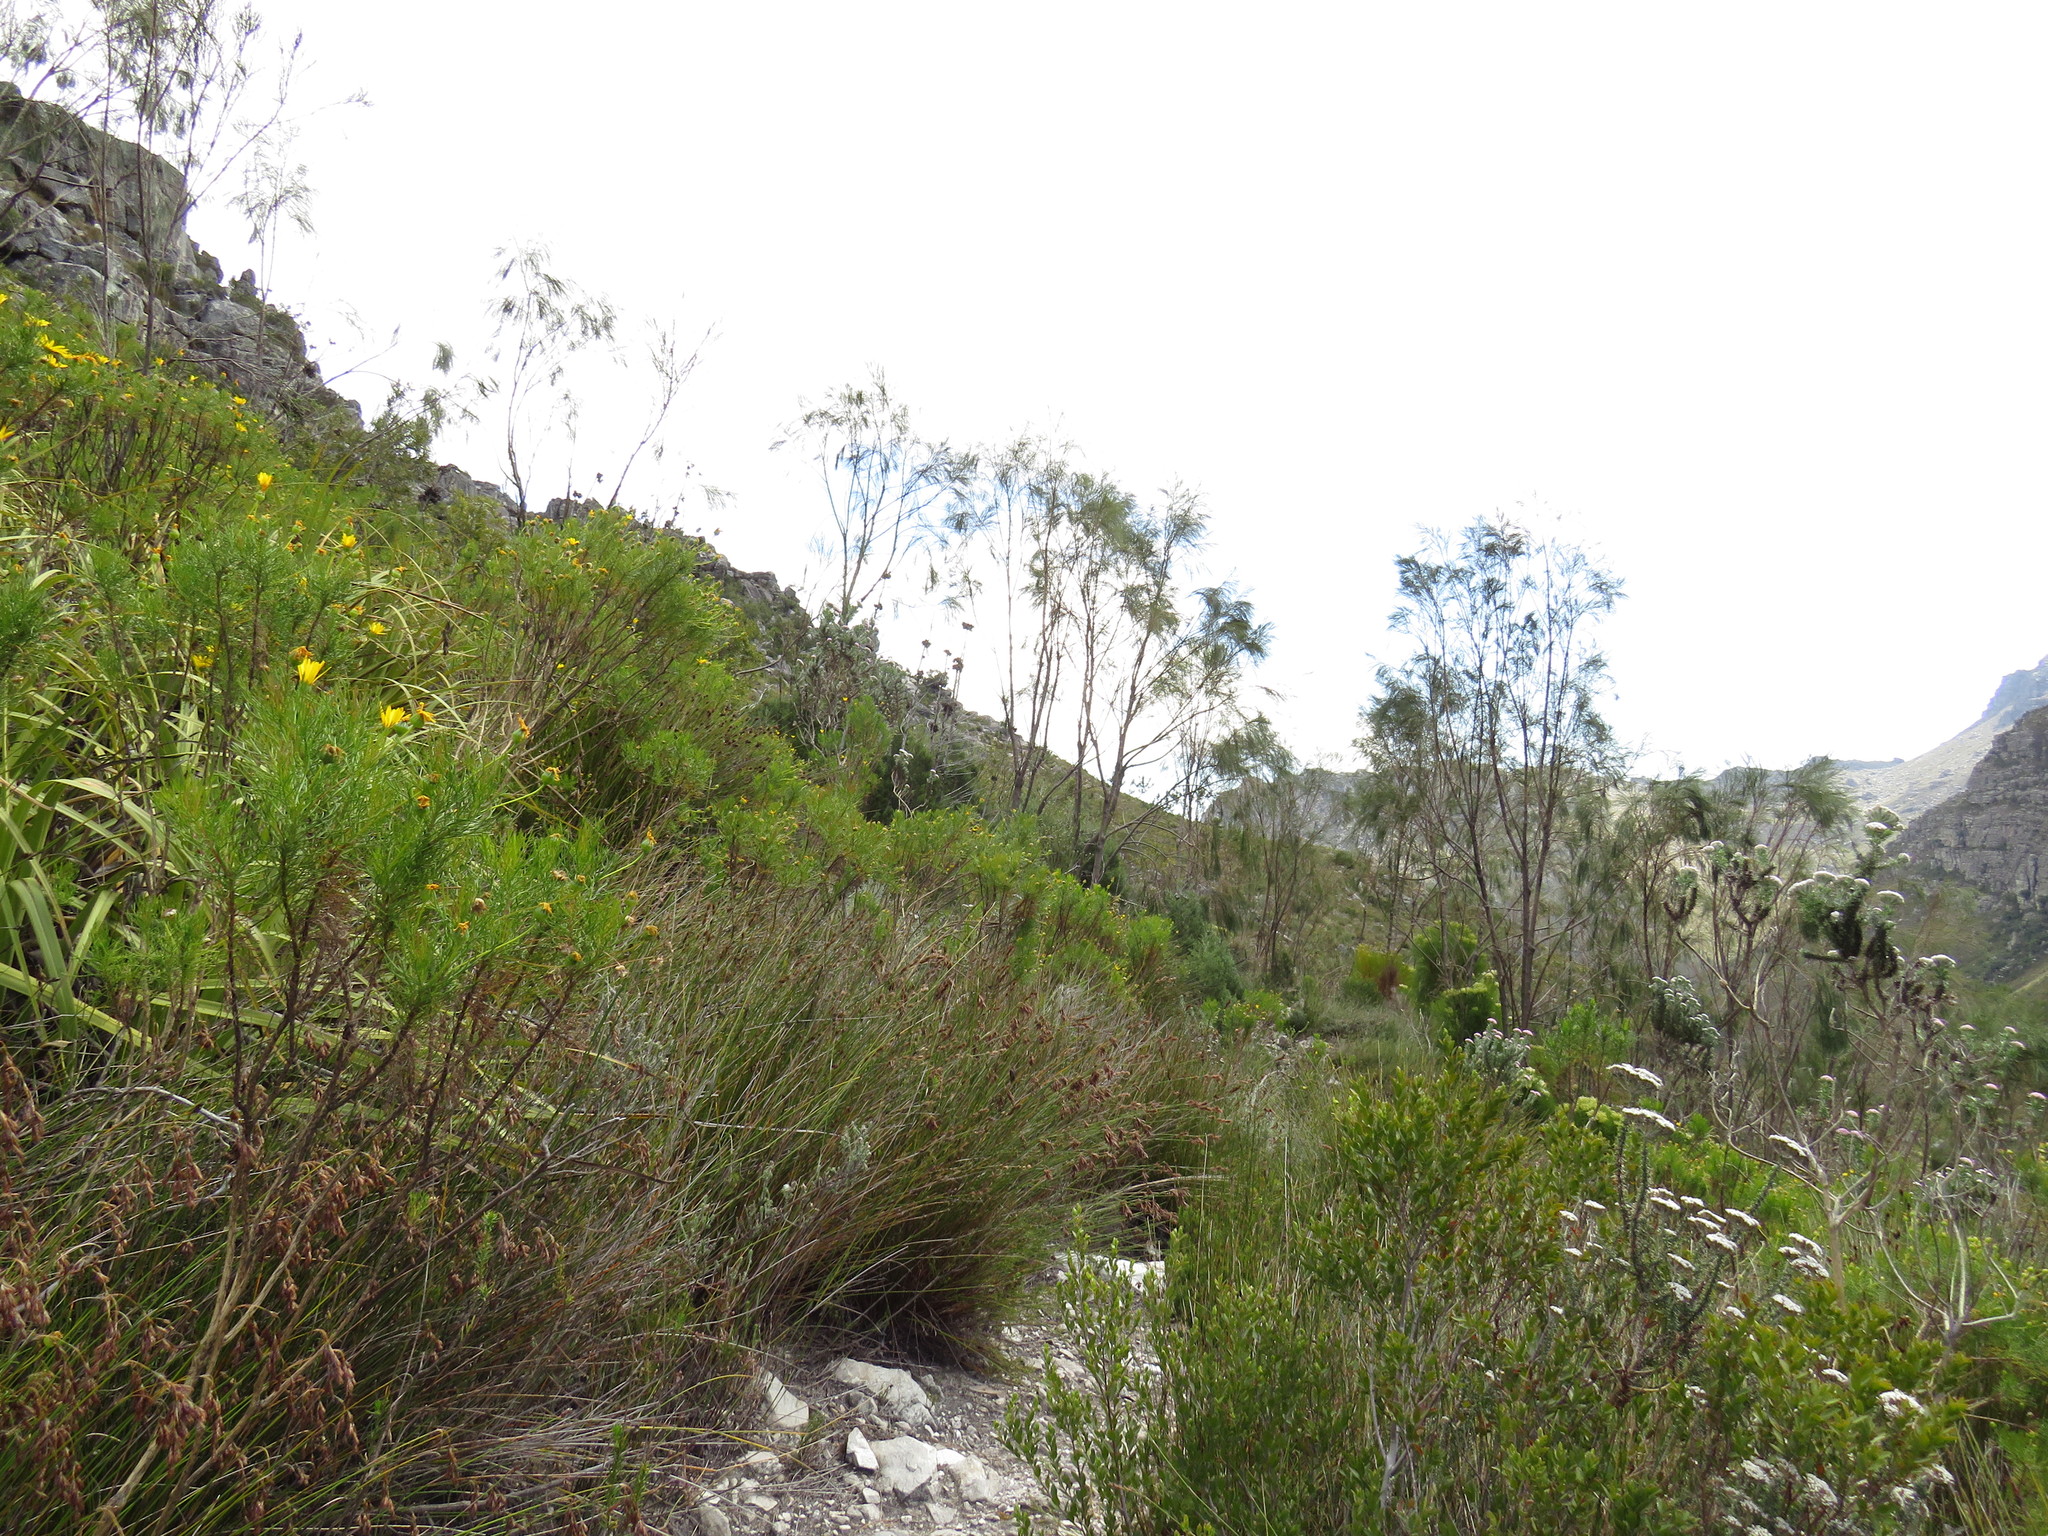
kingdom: Plantae
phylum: Tracheophyta
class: Magnoliopsida
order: Fabales
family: Fabaceae
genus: Hypocalyptus
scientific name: Hypocalyptus sophoroides
